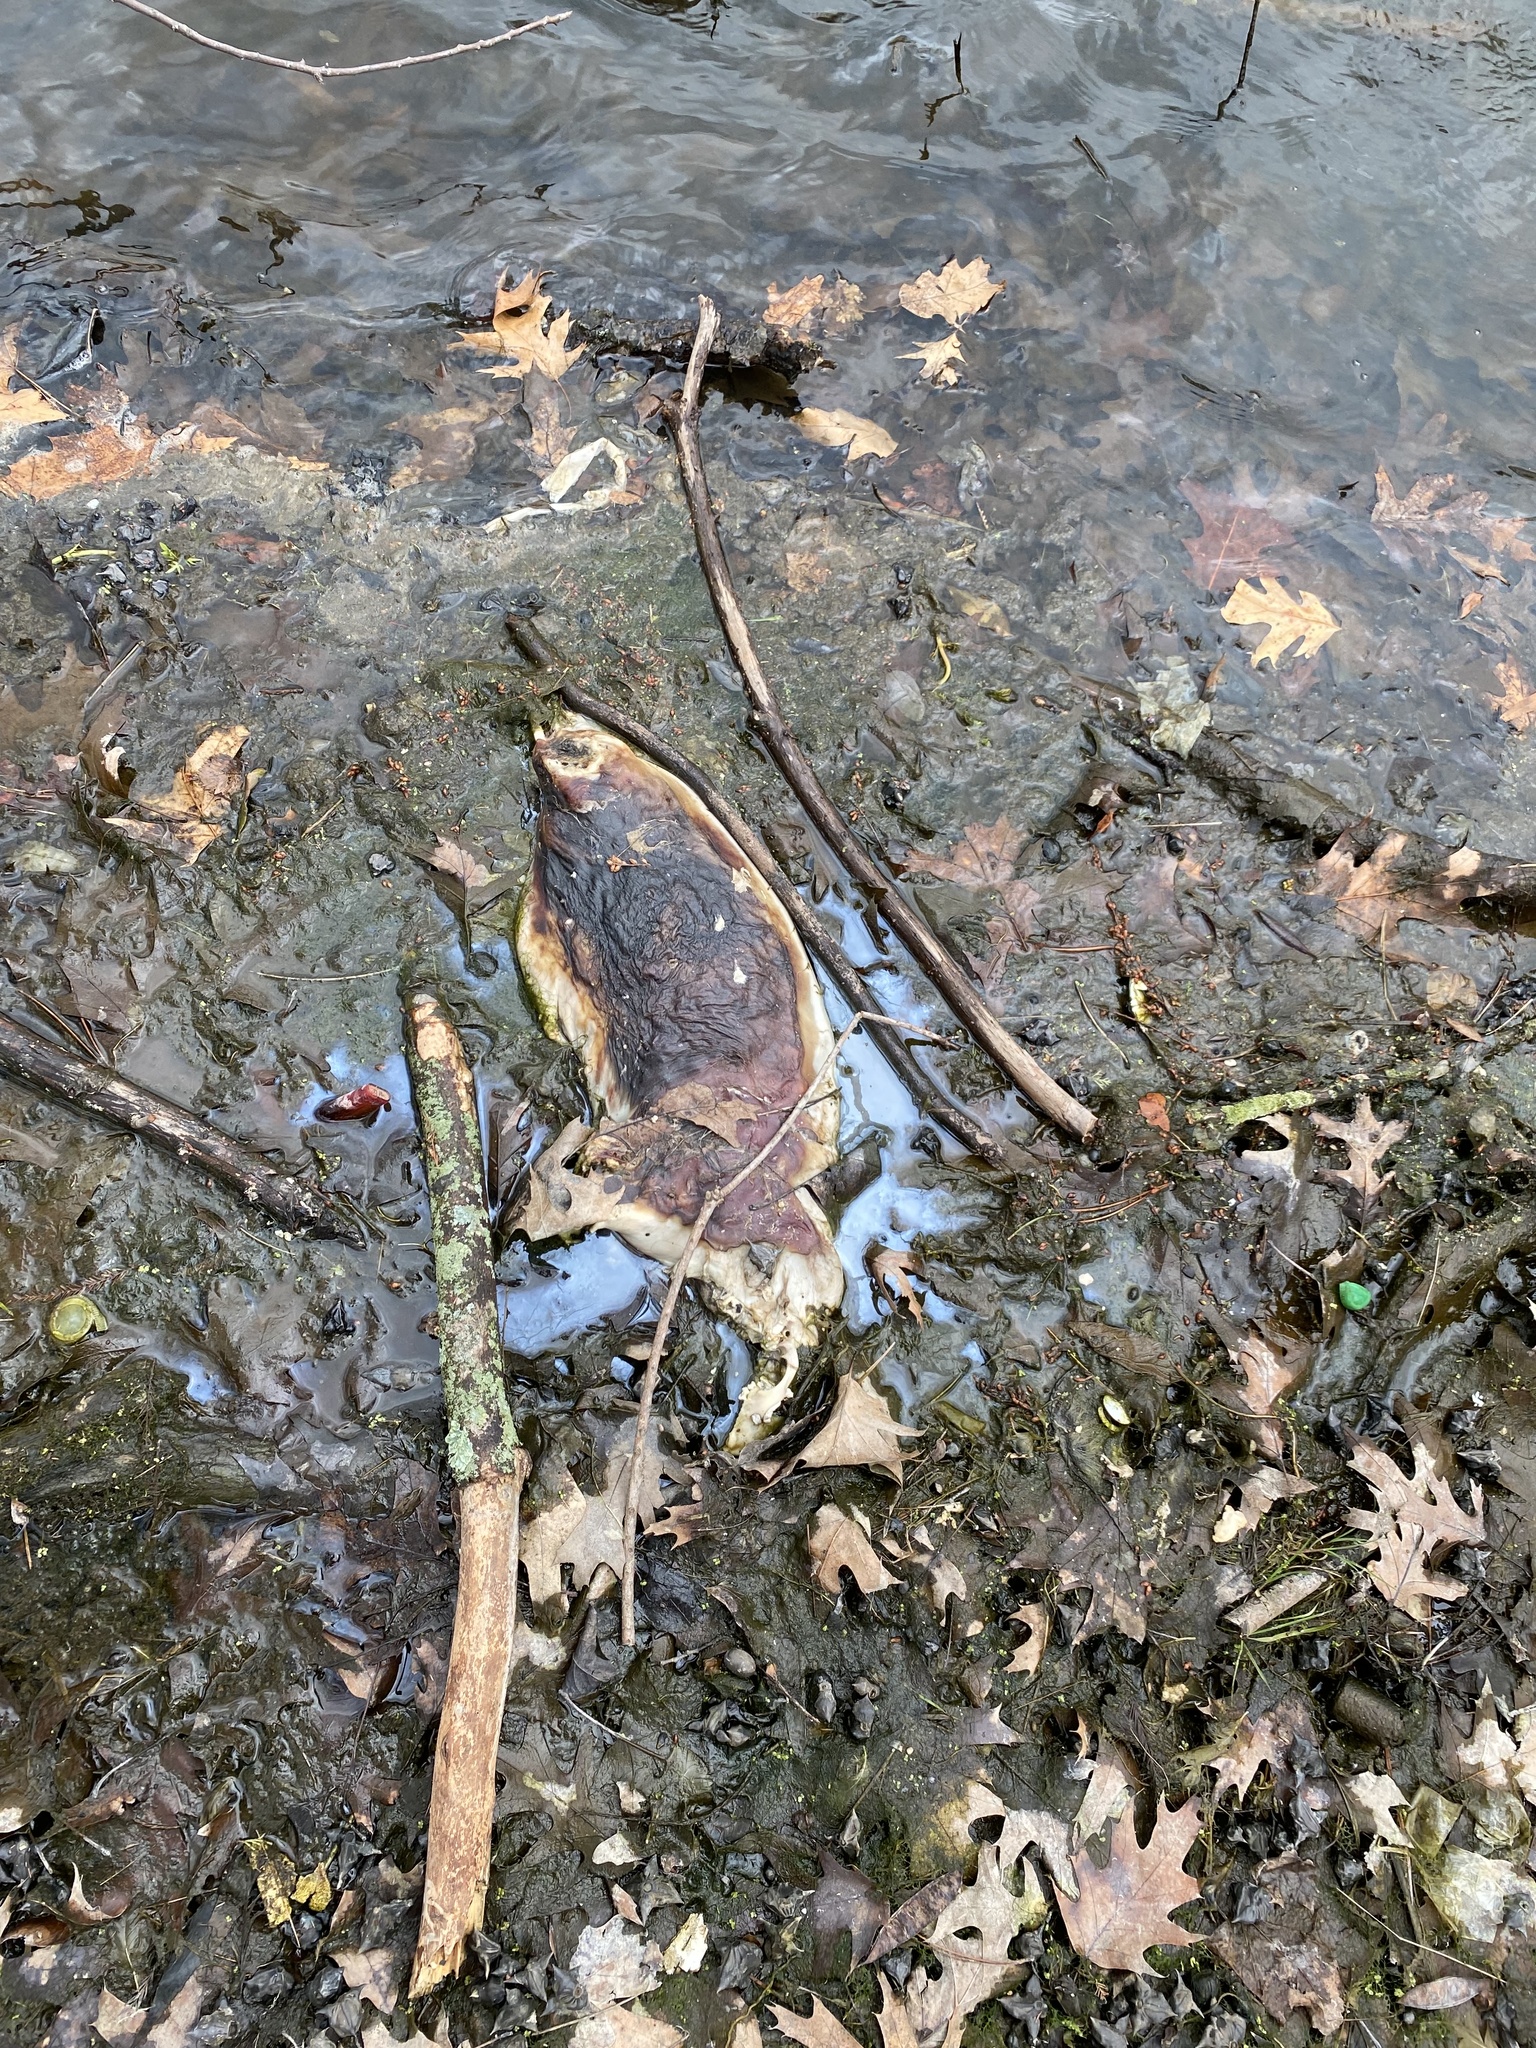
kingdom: Animalia
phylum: Chordata
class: Mammalia
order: Carnivora
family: Procyonidae
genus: Procyon
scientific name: Procyon lotor
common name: Raccoon
